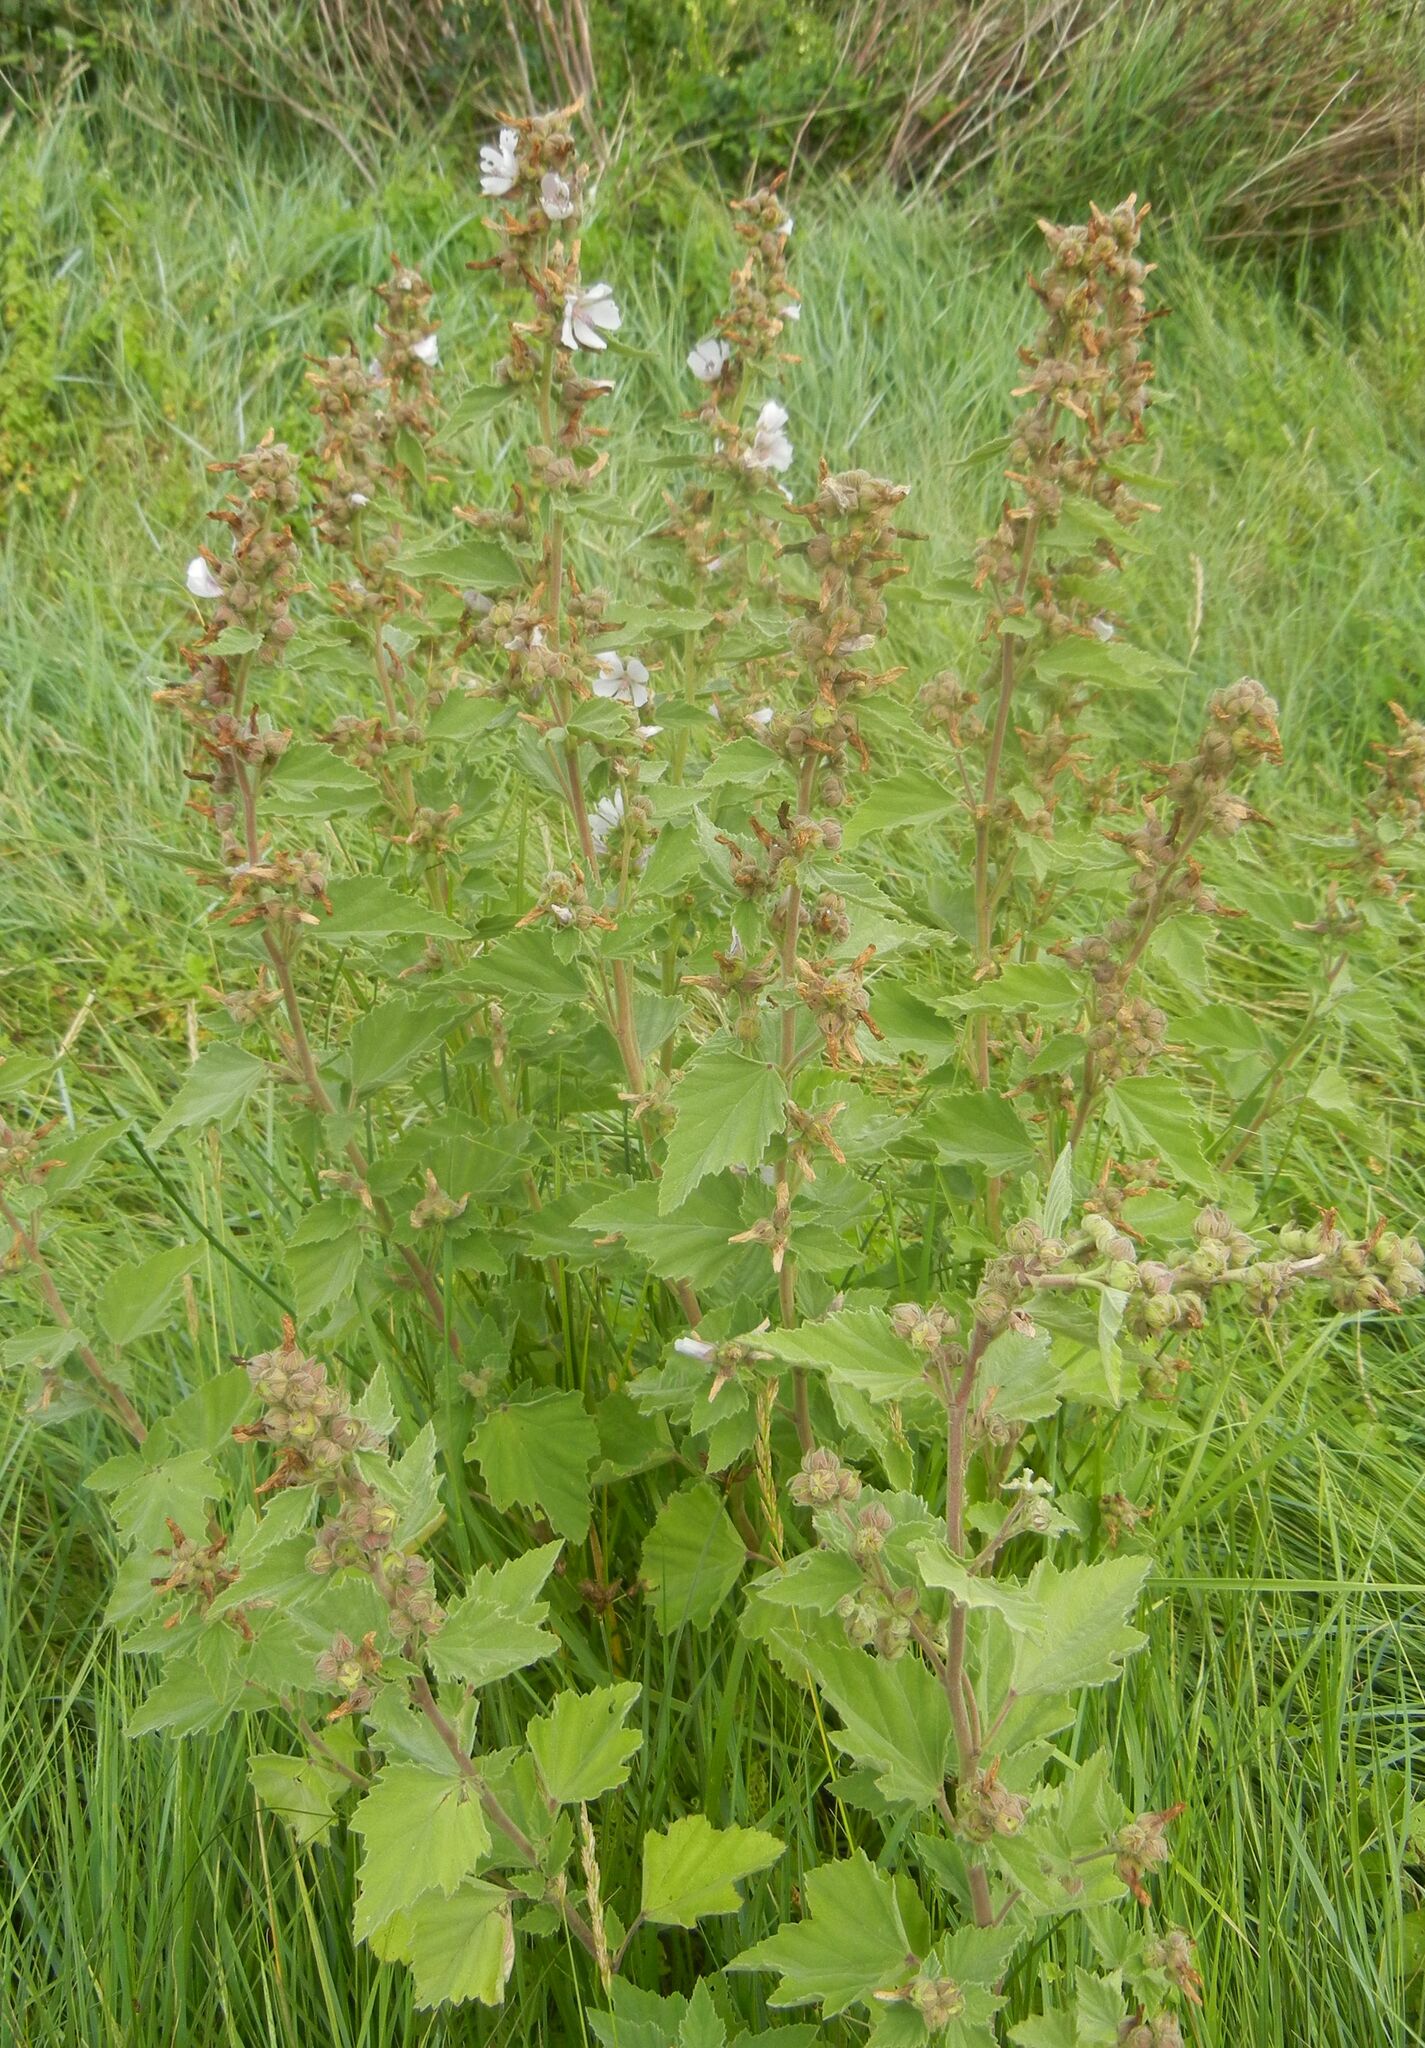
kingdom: Plantae
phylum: Tracheophyta
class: Magnoliopsida
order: Malvales
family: Malvaceae
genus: Althaea
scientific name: Althaea officinalis
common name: Marsh-mallow
